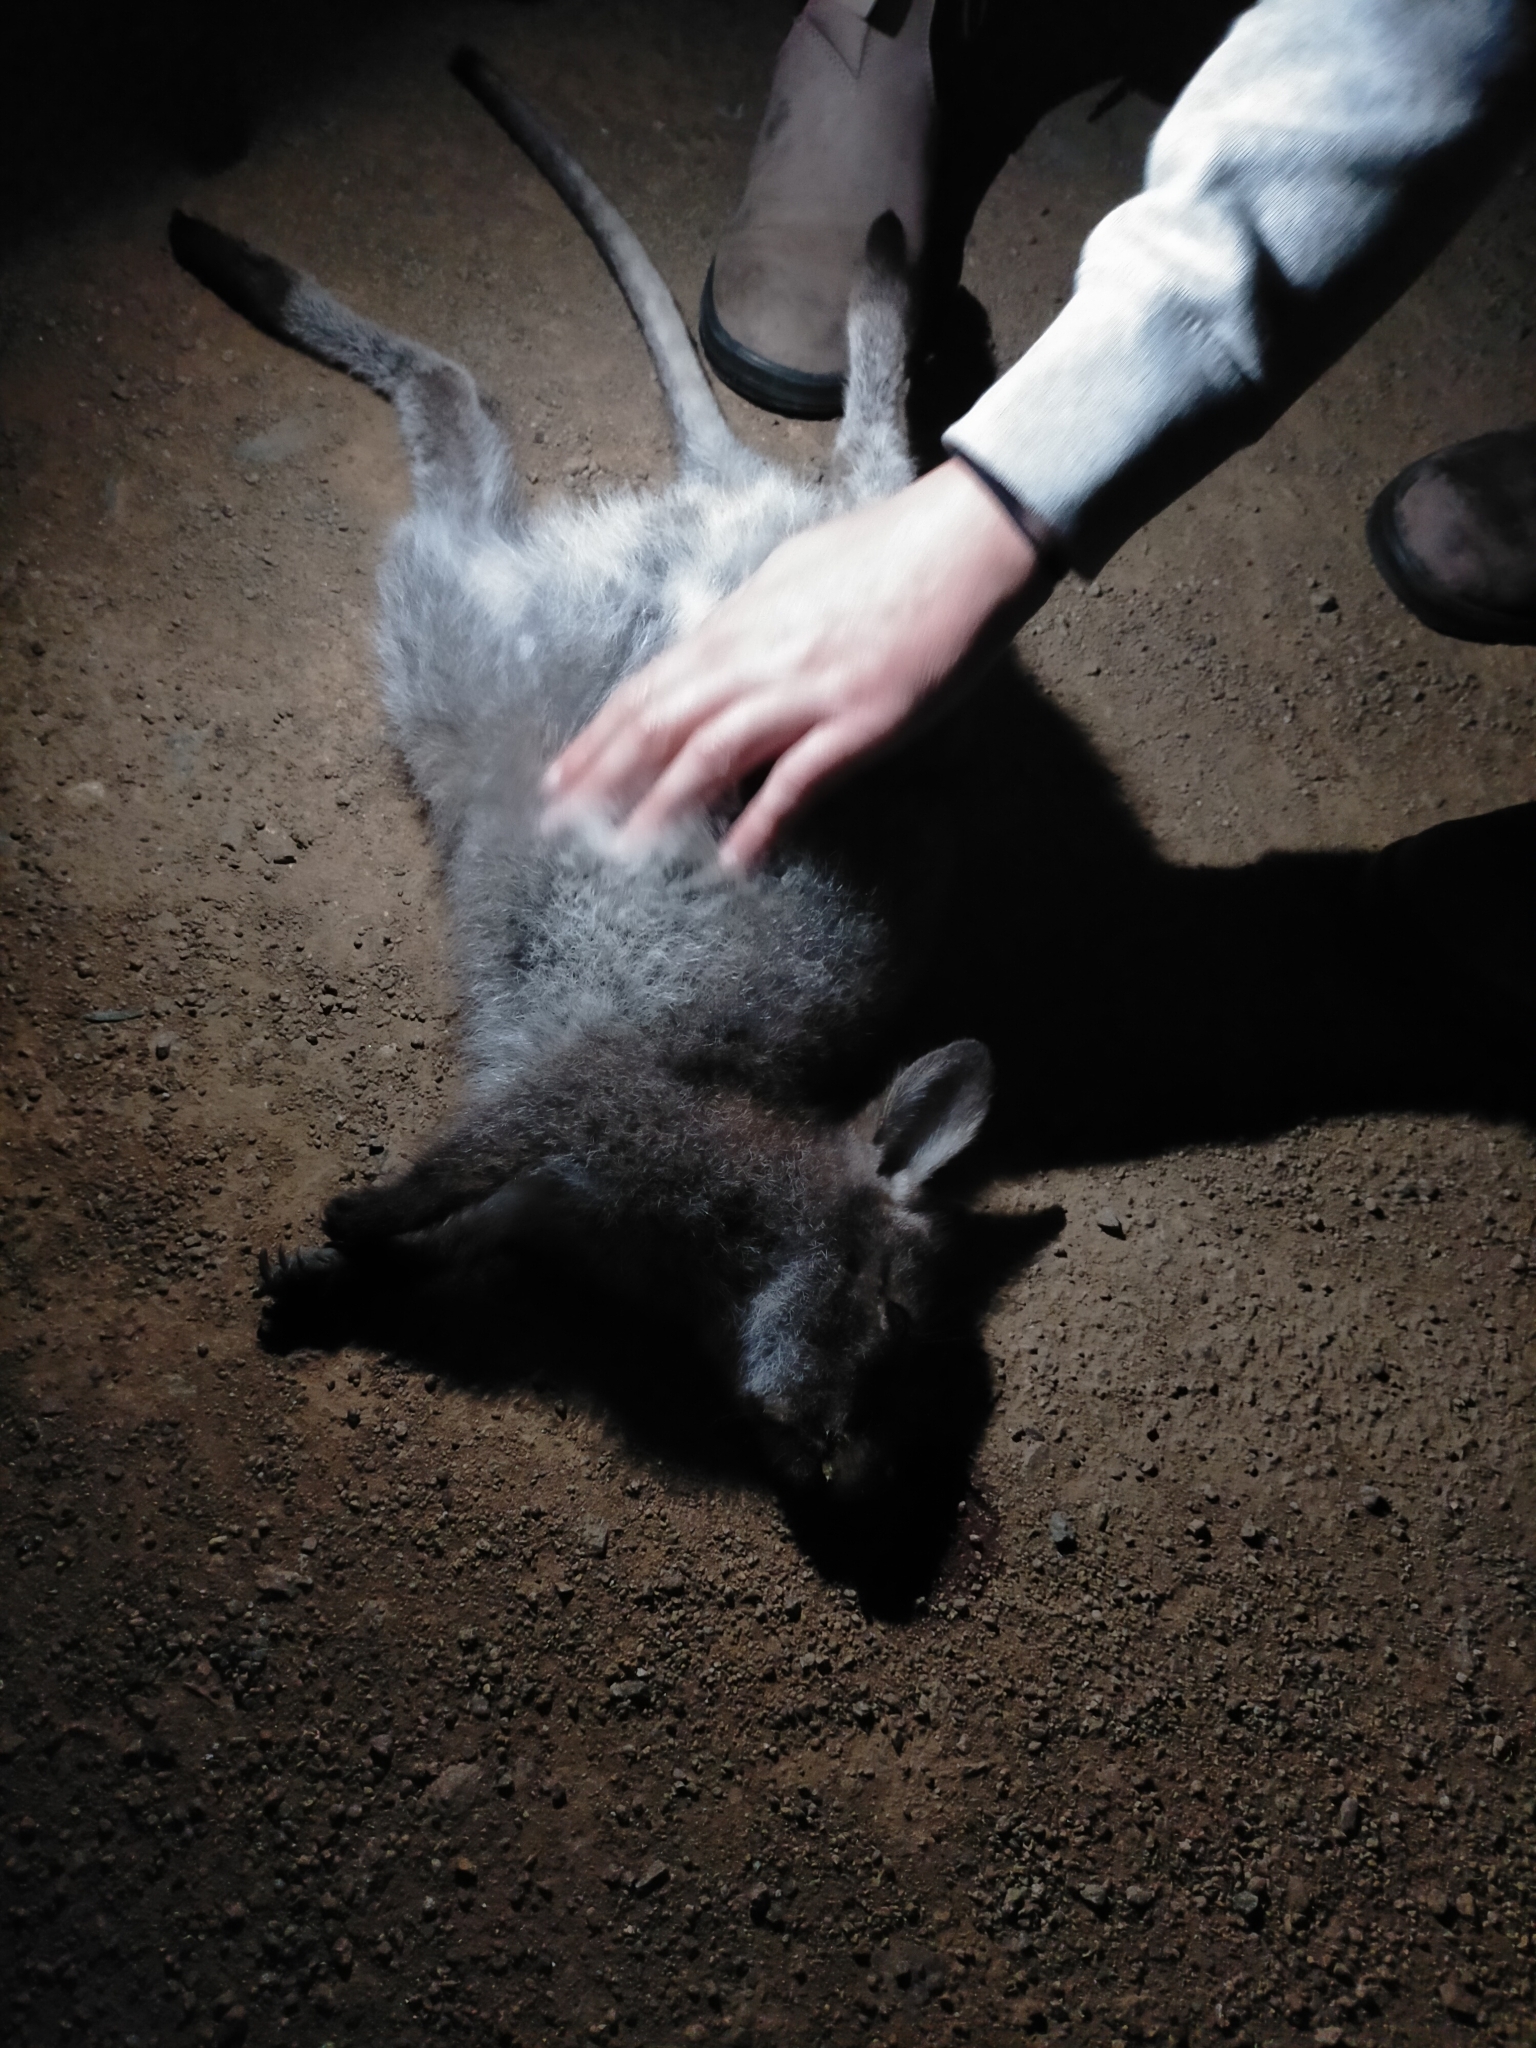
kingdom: Animalia
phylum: Chordata
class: Mammalia
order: Diprotodontia
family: Macropodidae
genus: Notamacropus
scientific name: Notamacropus rufogriseus
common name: Red-necked wallaby
